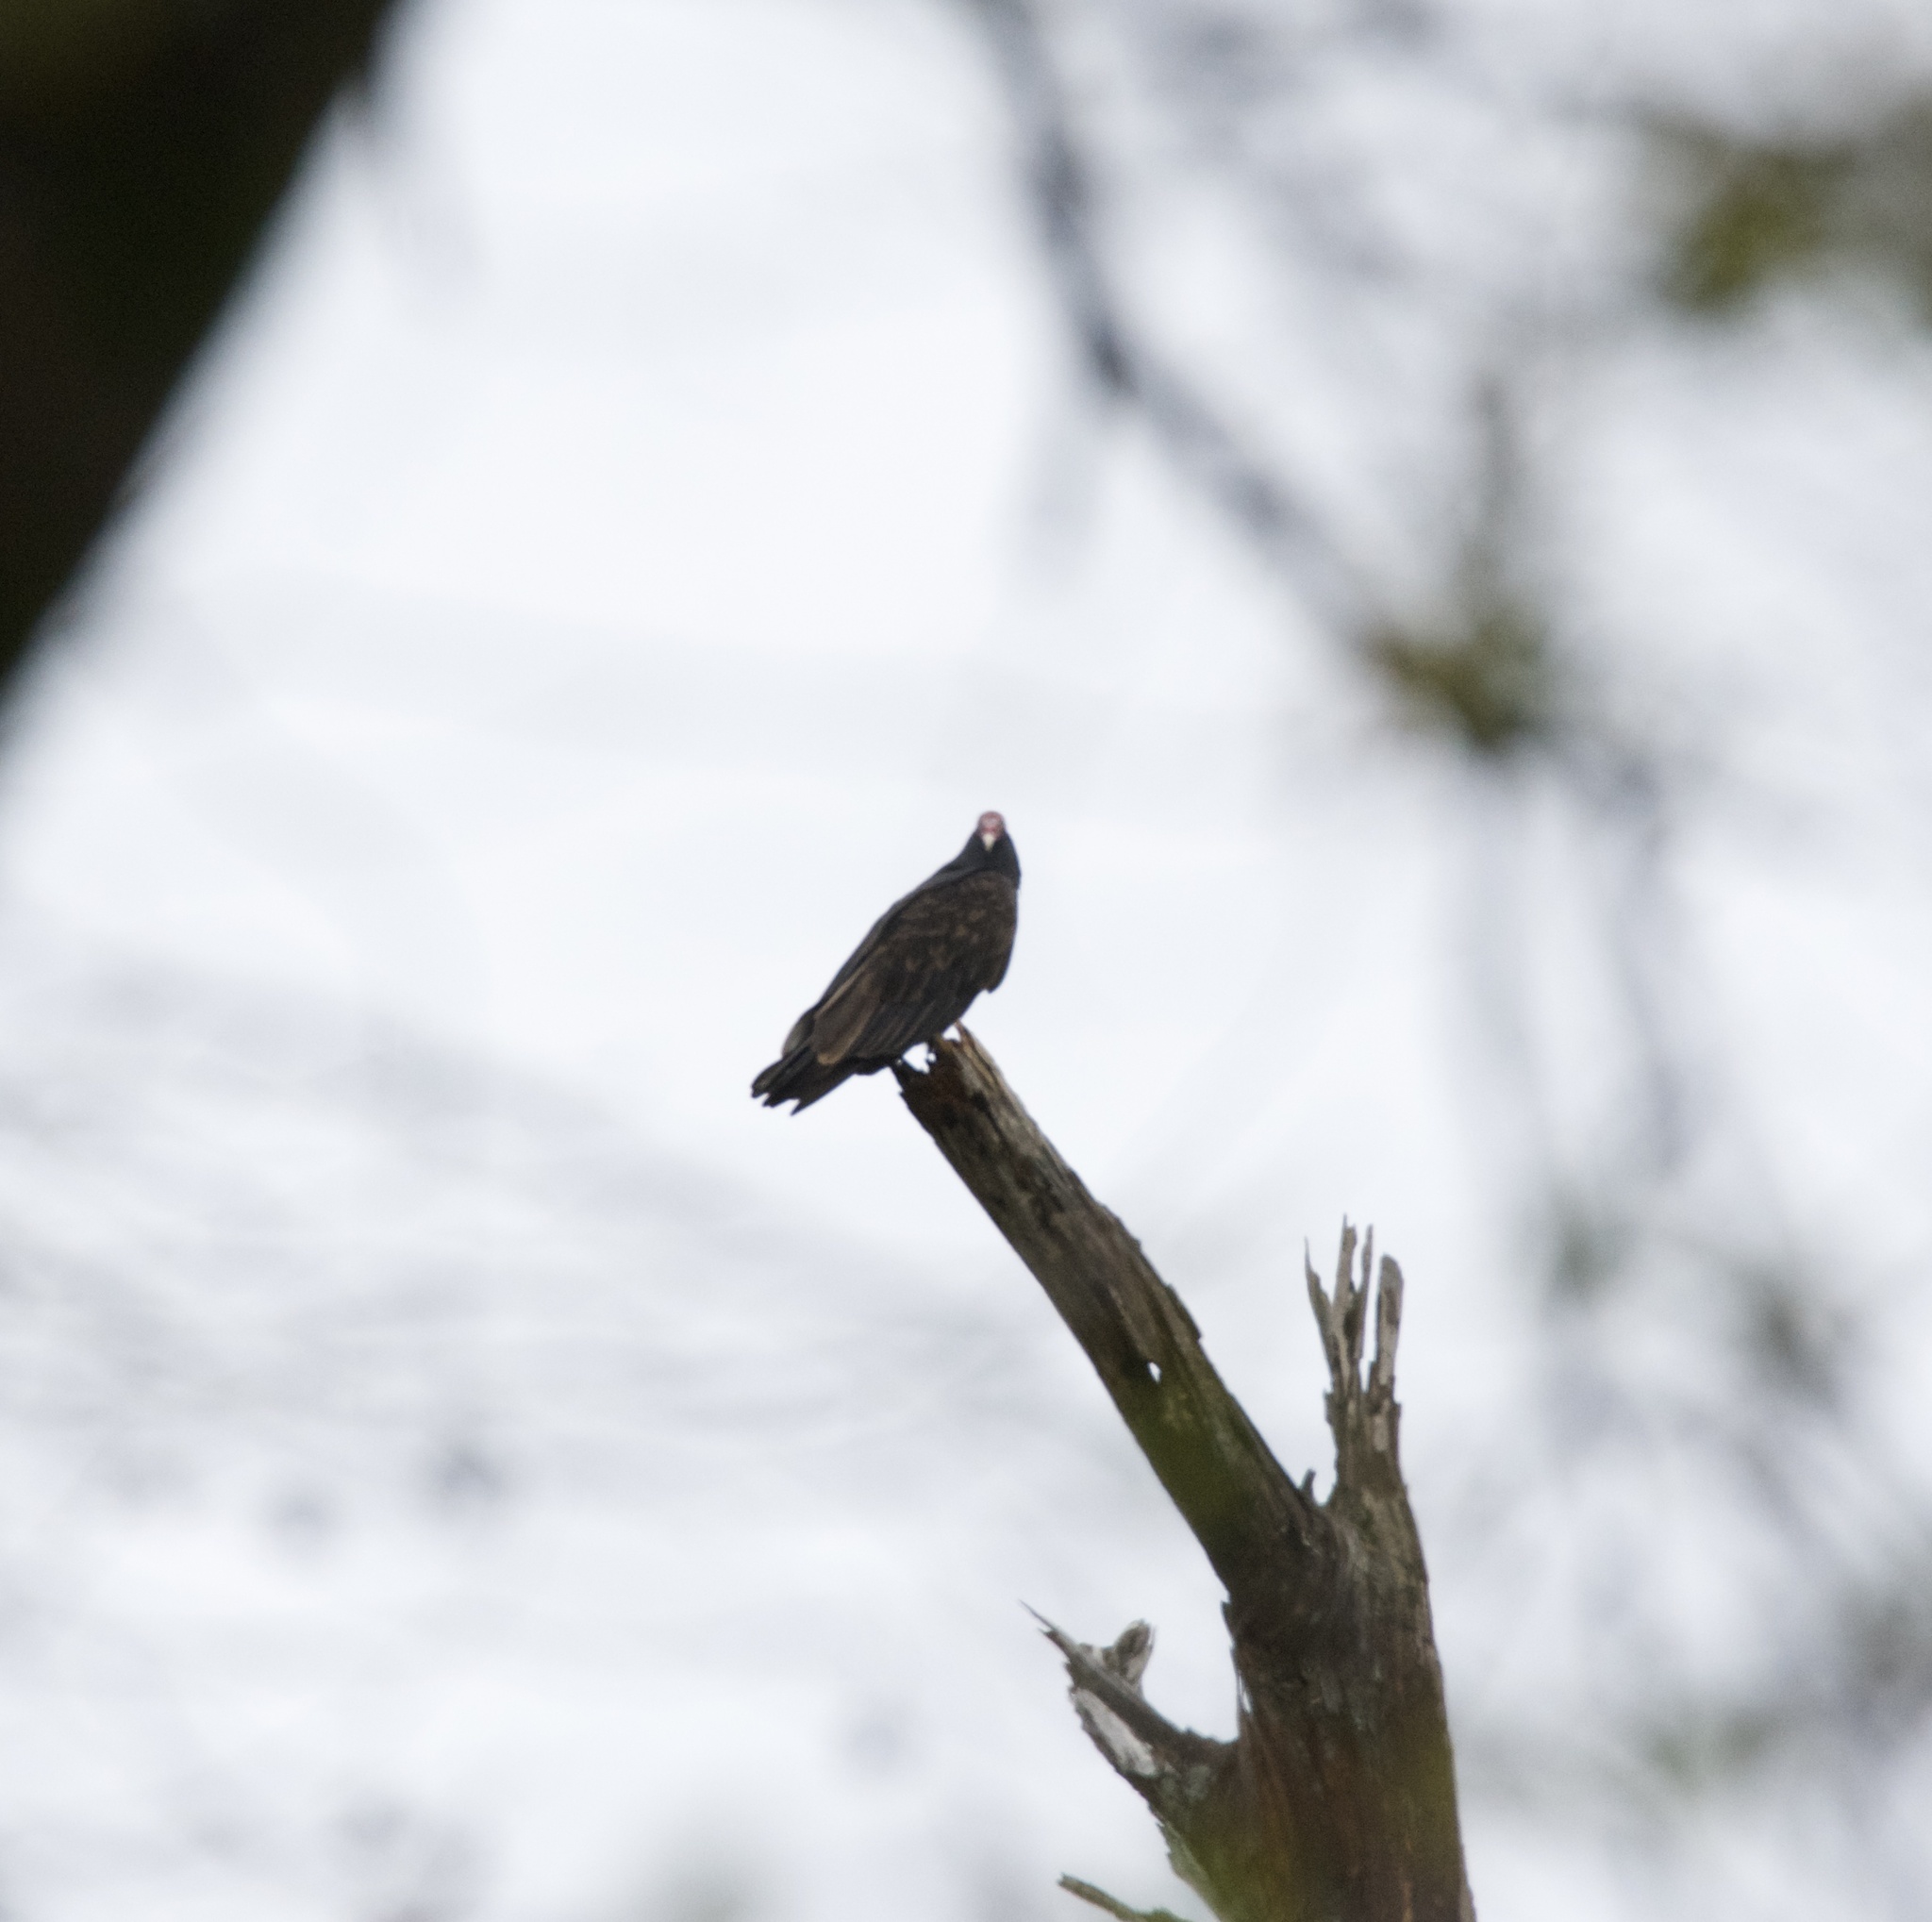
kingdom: Animalia
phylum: Chordata
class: Aves
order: Accipitriformes
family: Cathartidae
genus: Cathartes
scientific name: Cathartes aura
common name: Turkey vulture
